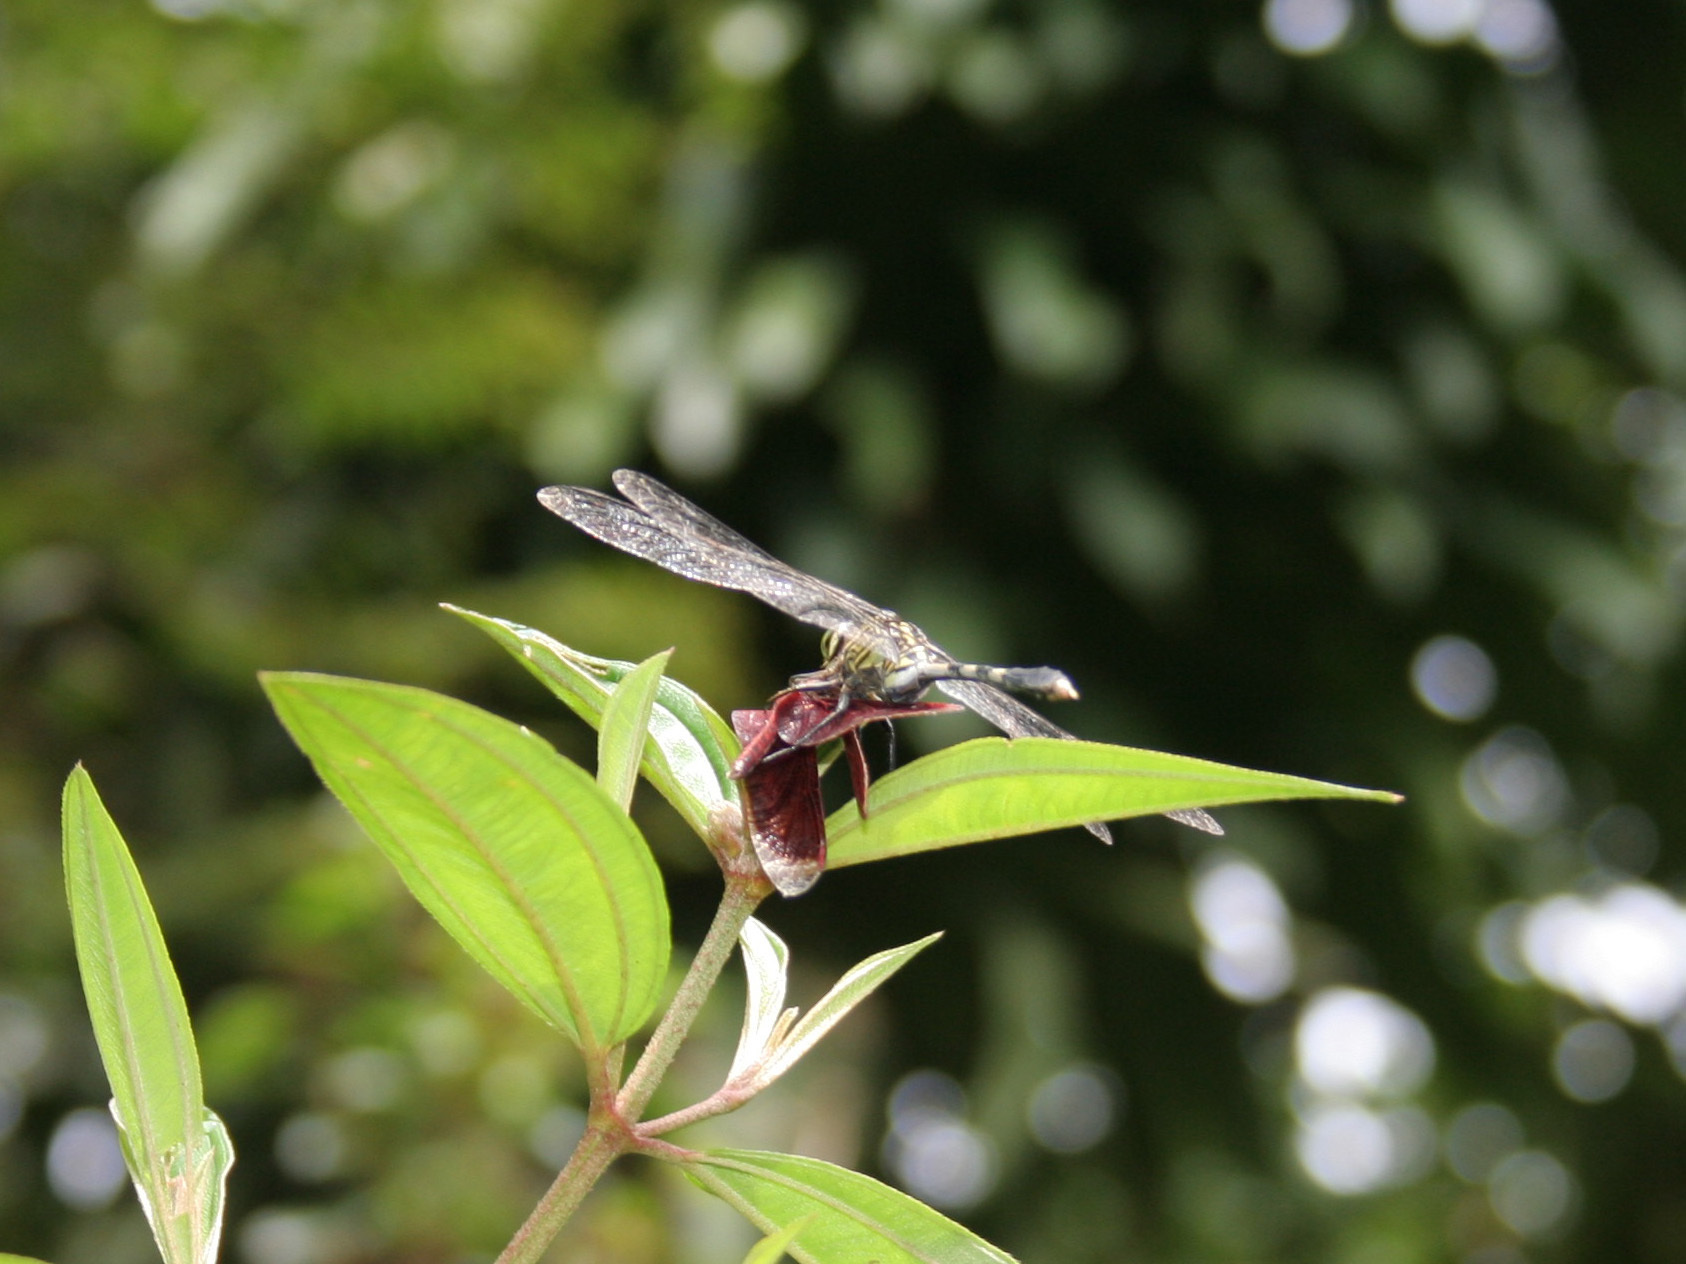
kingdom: Animalia
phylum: Arthropoda
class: Insecta
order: Odonata
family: Libellulidae
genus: Orthetrum
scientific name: Orthetrum sabina
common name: Slender skimmer
